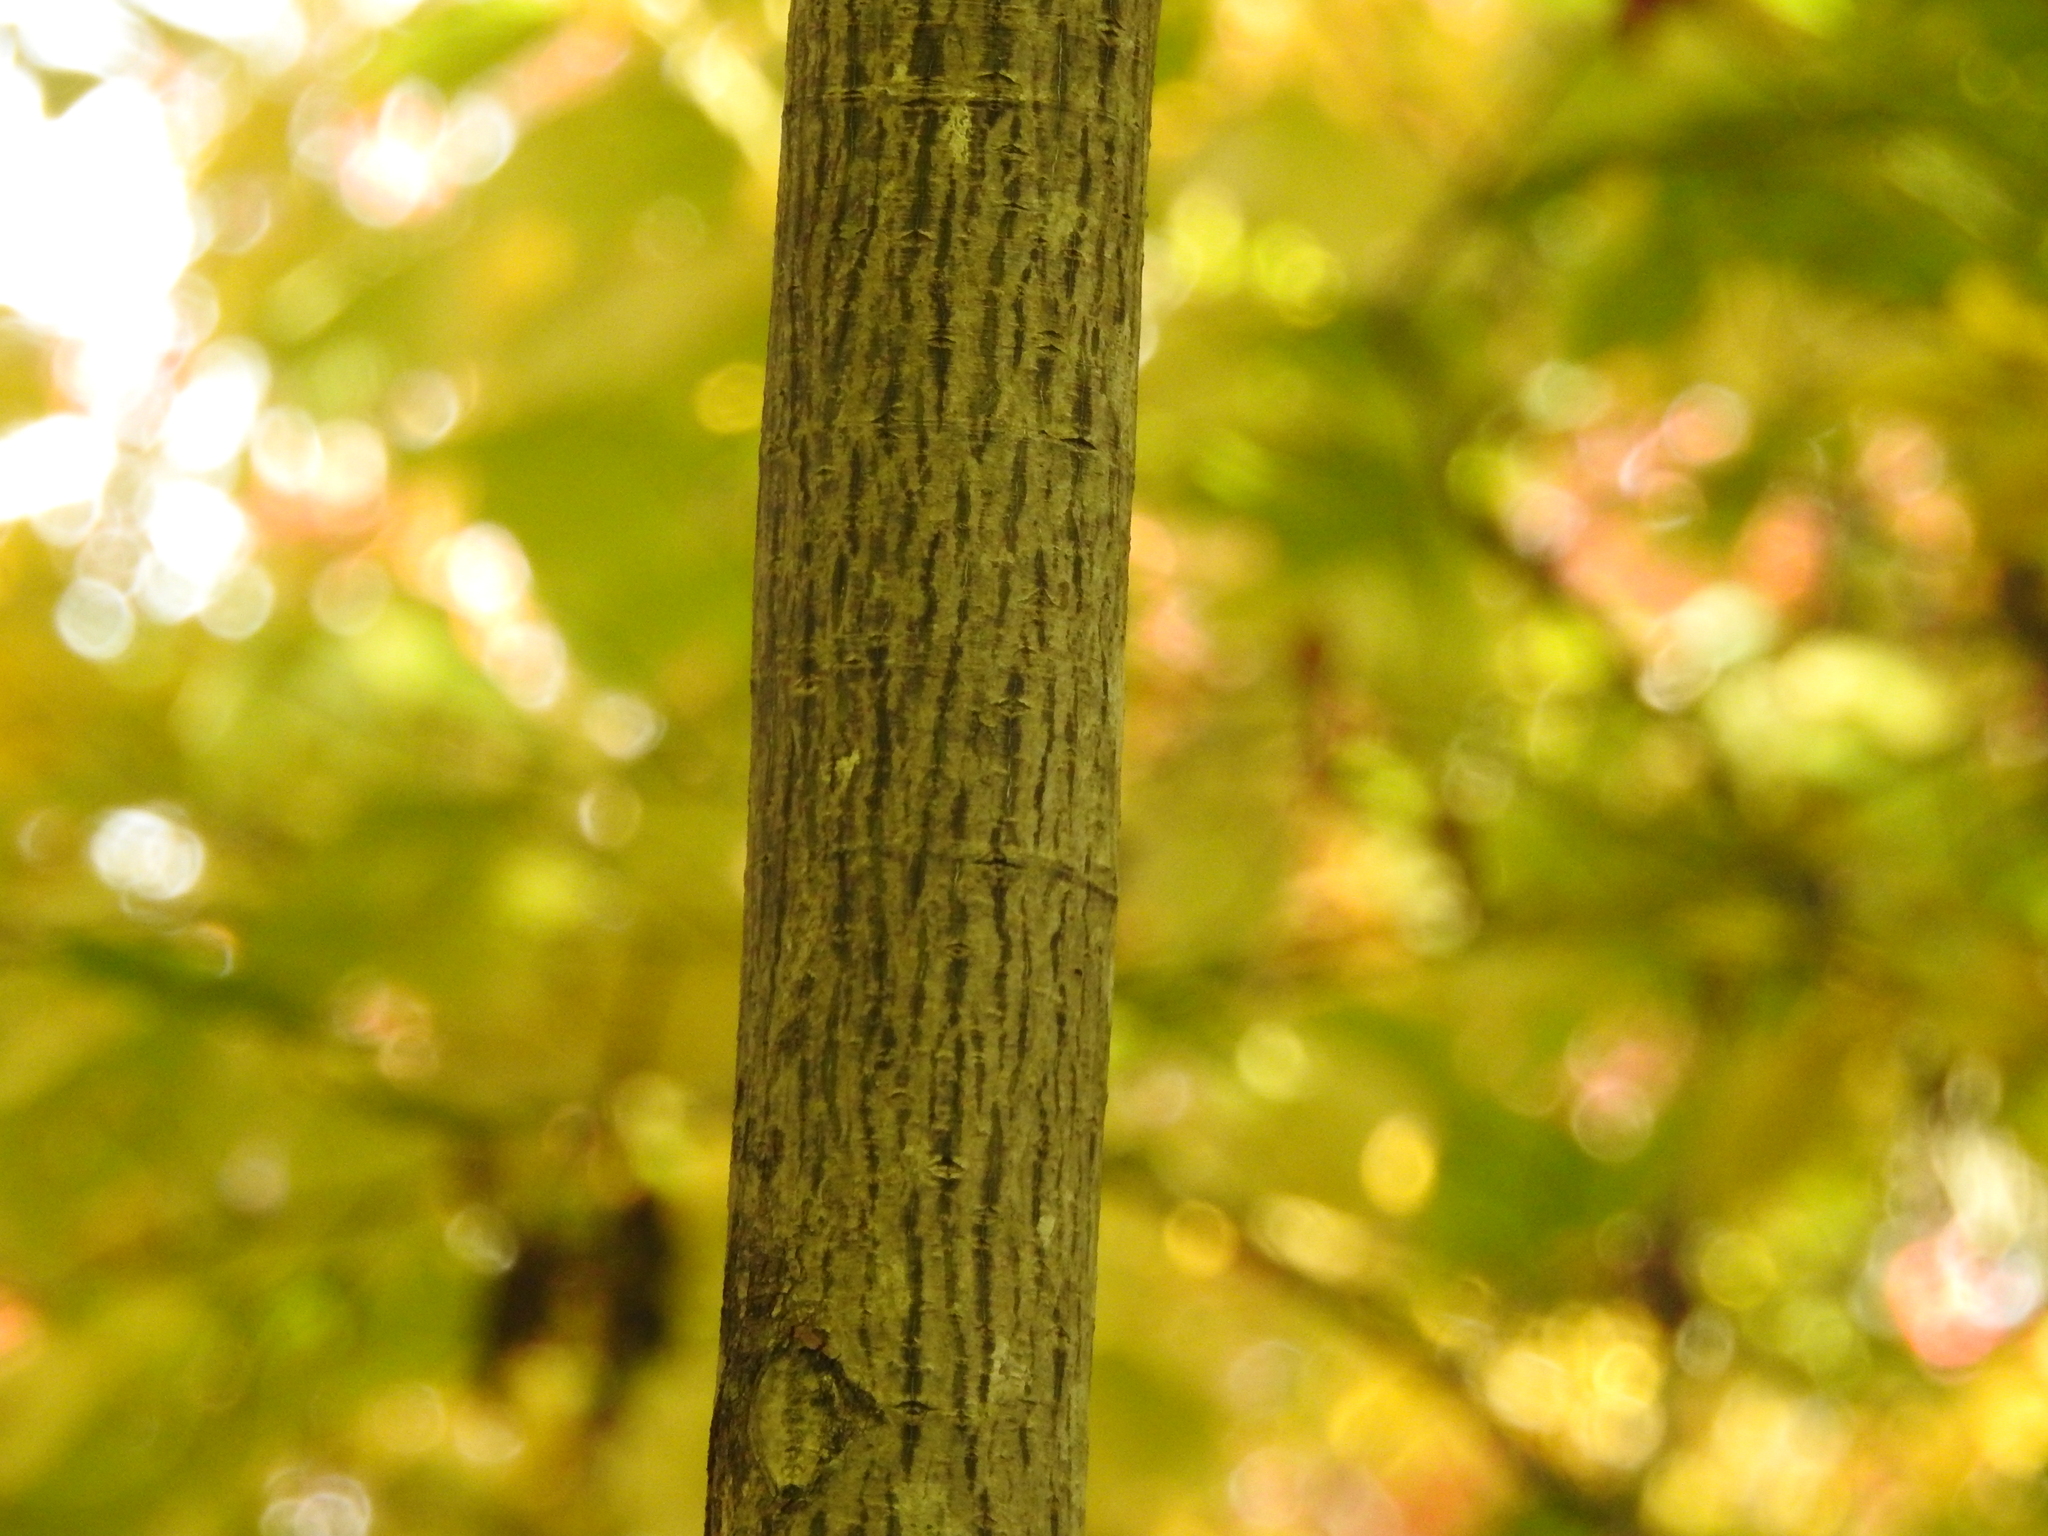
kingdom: Plantae
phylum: Tracheophyta
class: Magnoliopsida
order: Sapindales
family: Sapindaceae
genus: Acer
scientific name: Acer pensylvanicum
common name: Moosewood
